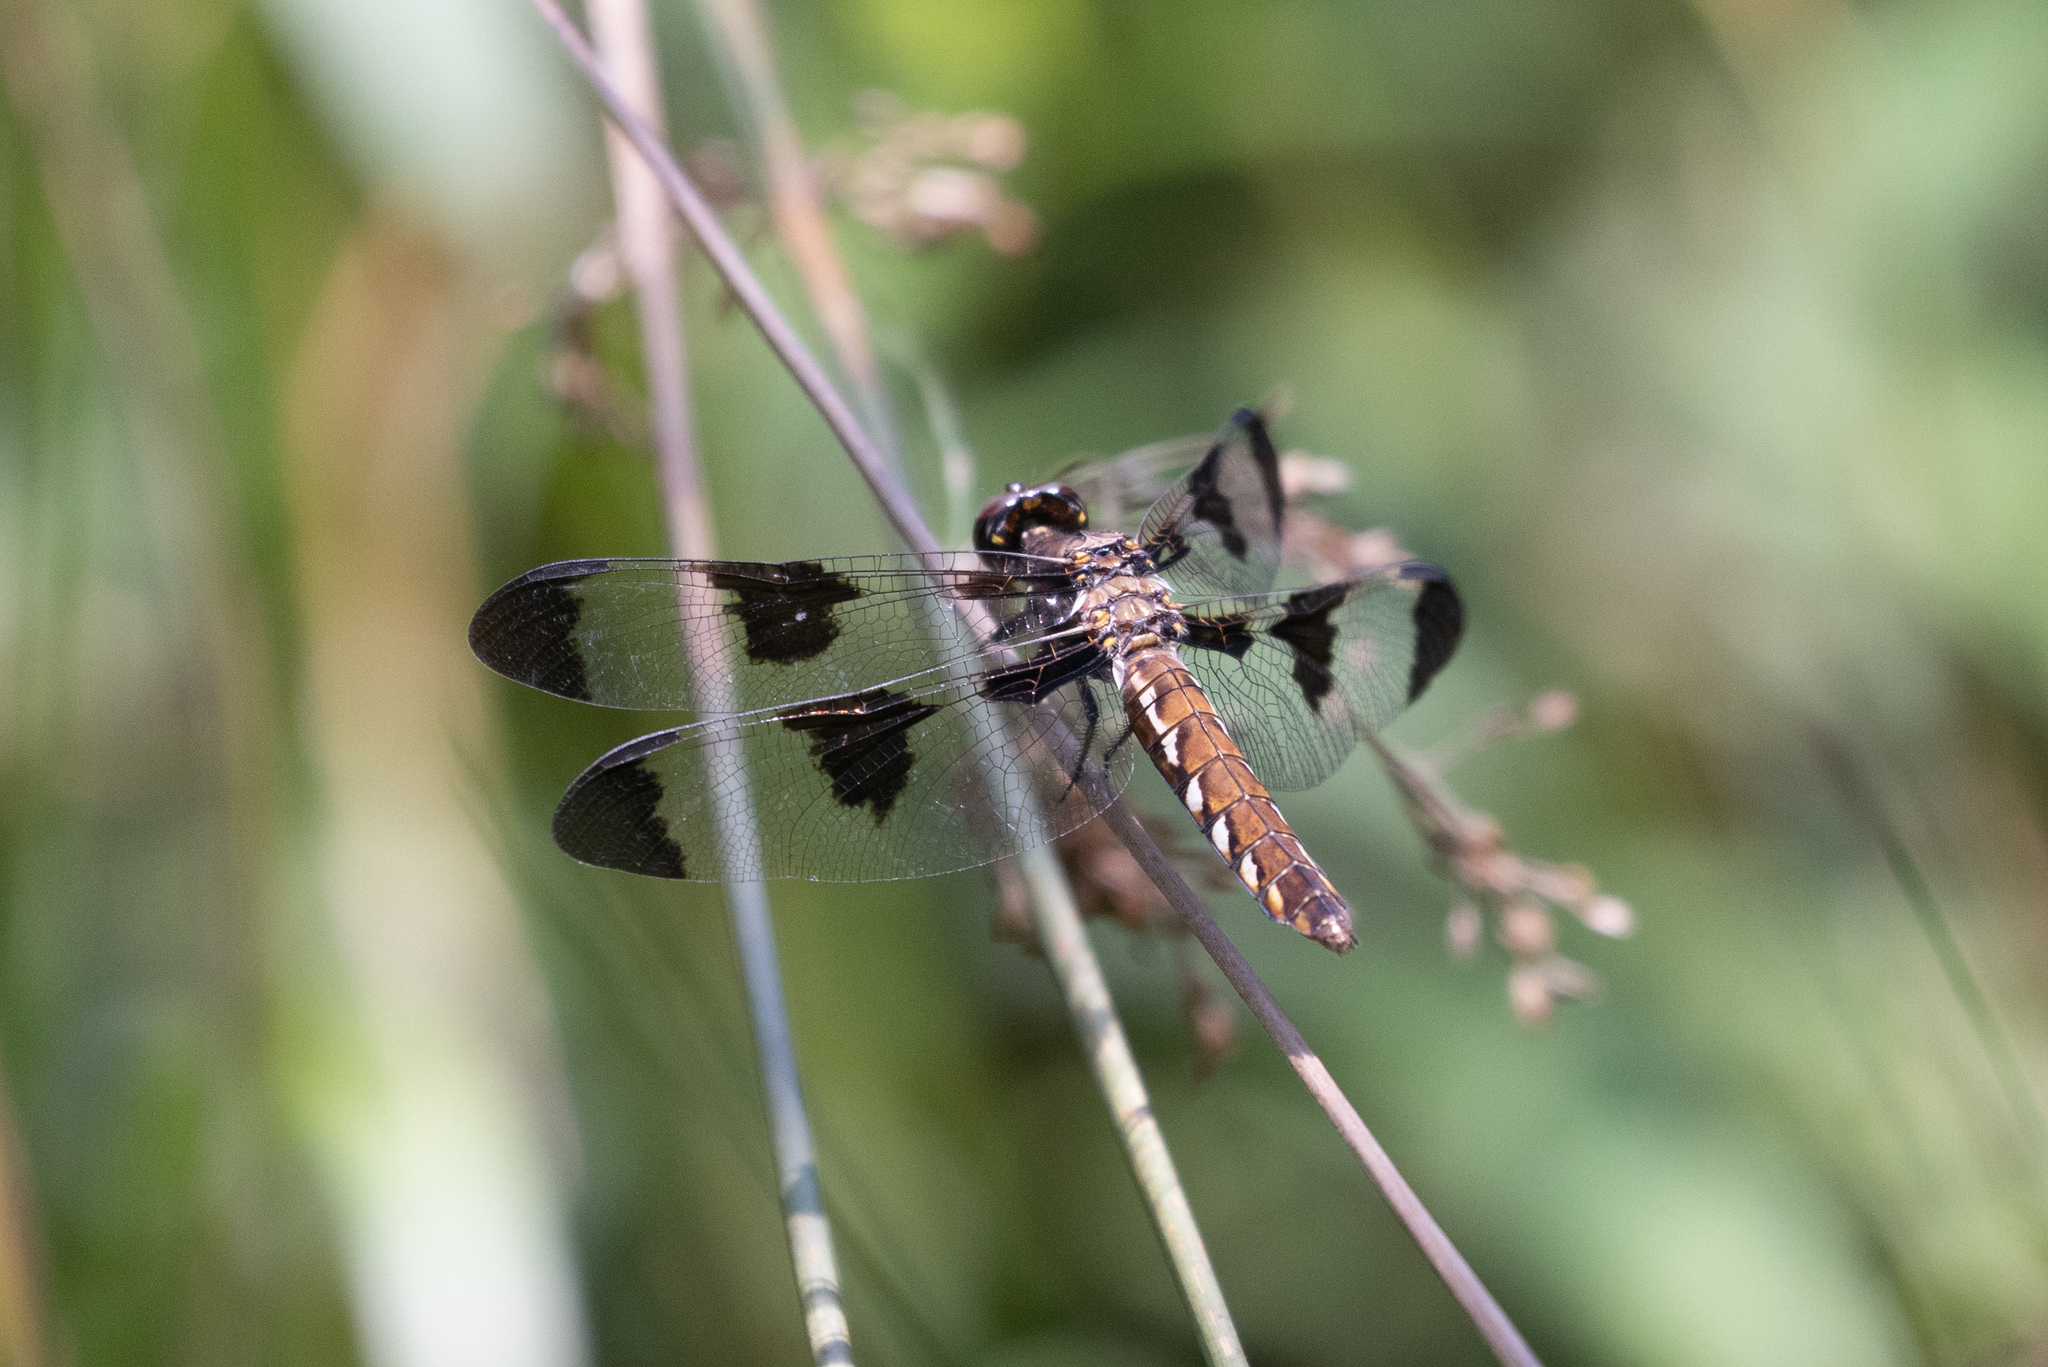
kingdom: Animalia
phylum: Arthropoda
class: Insecta
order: Odonata
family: Libellulidae
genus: Plathemis
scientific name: Plathemis lydia
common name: Common whitetail
